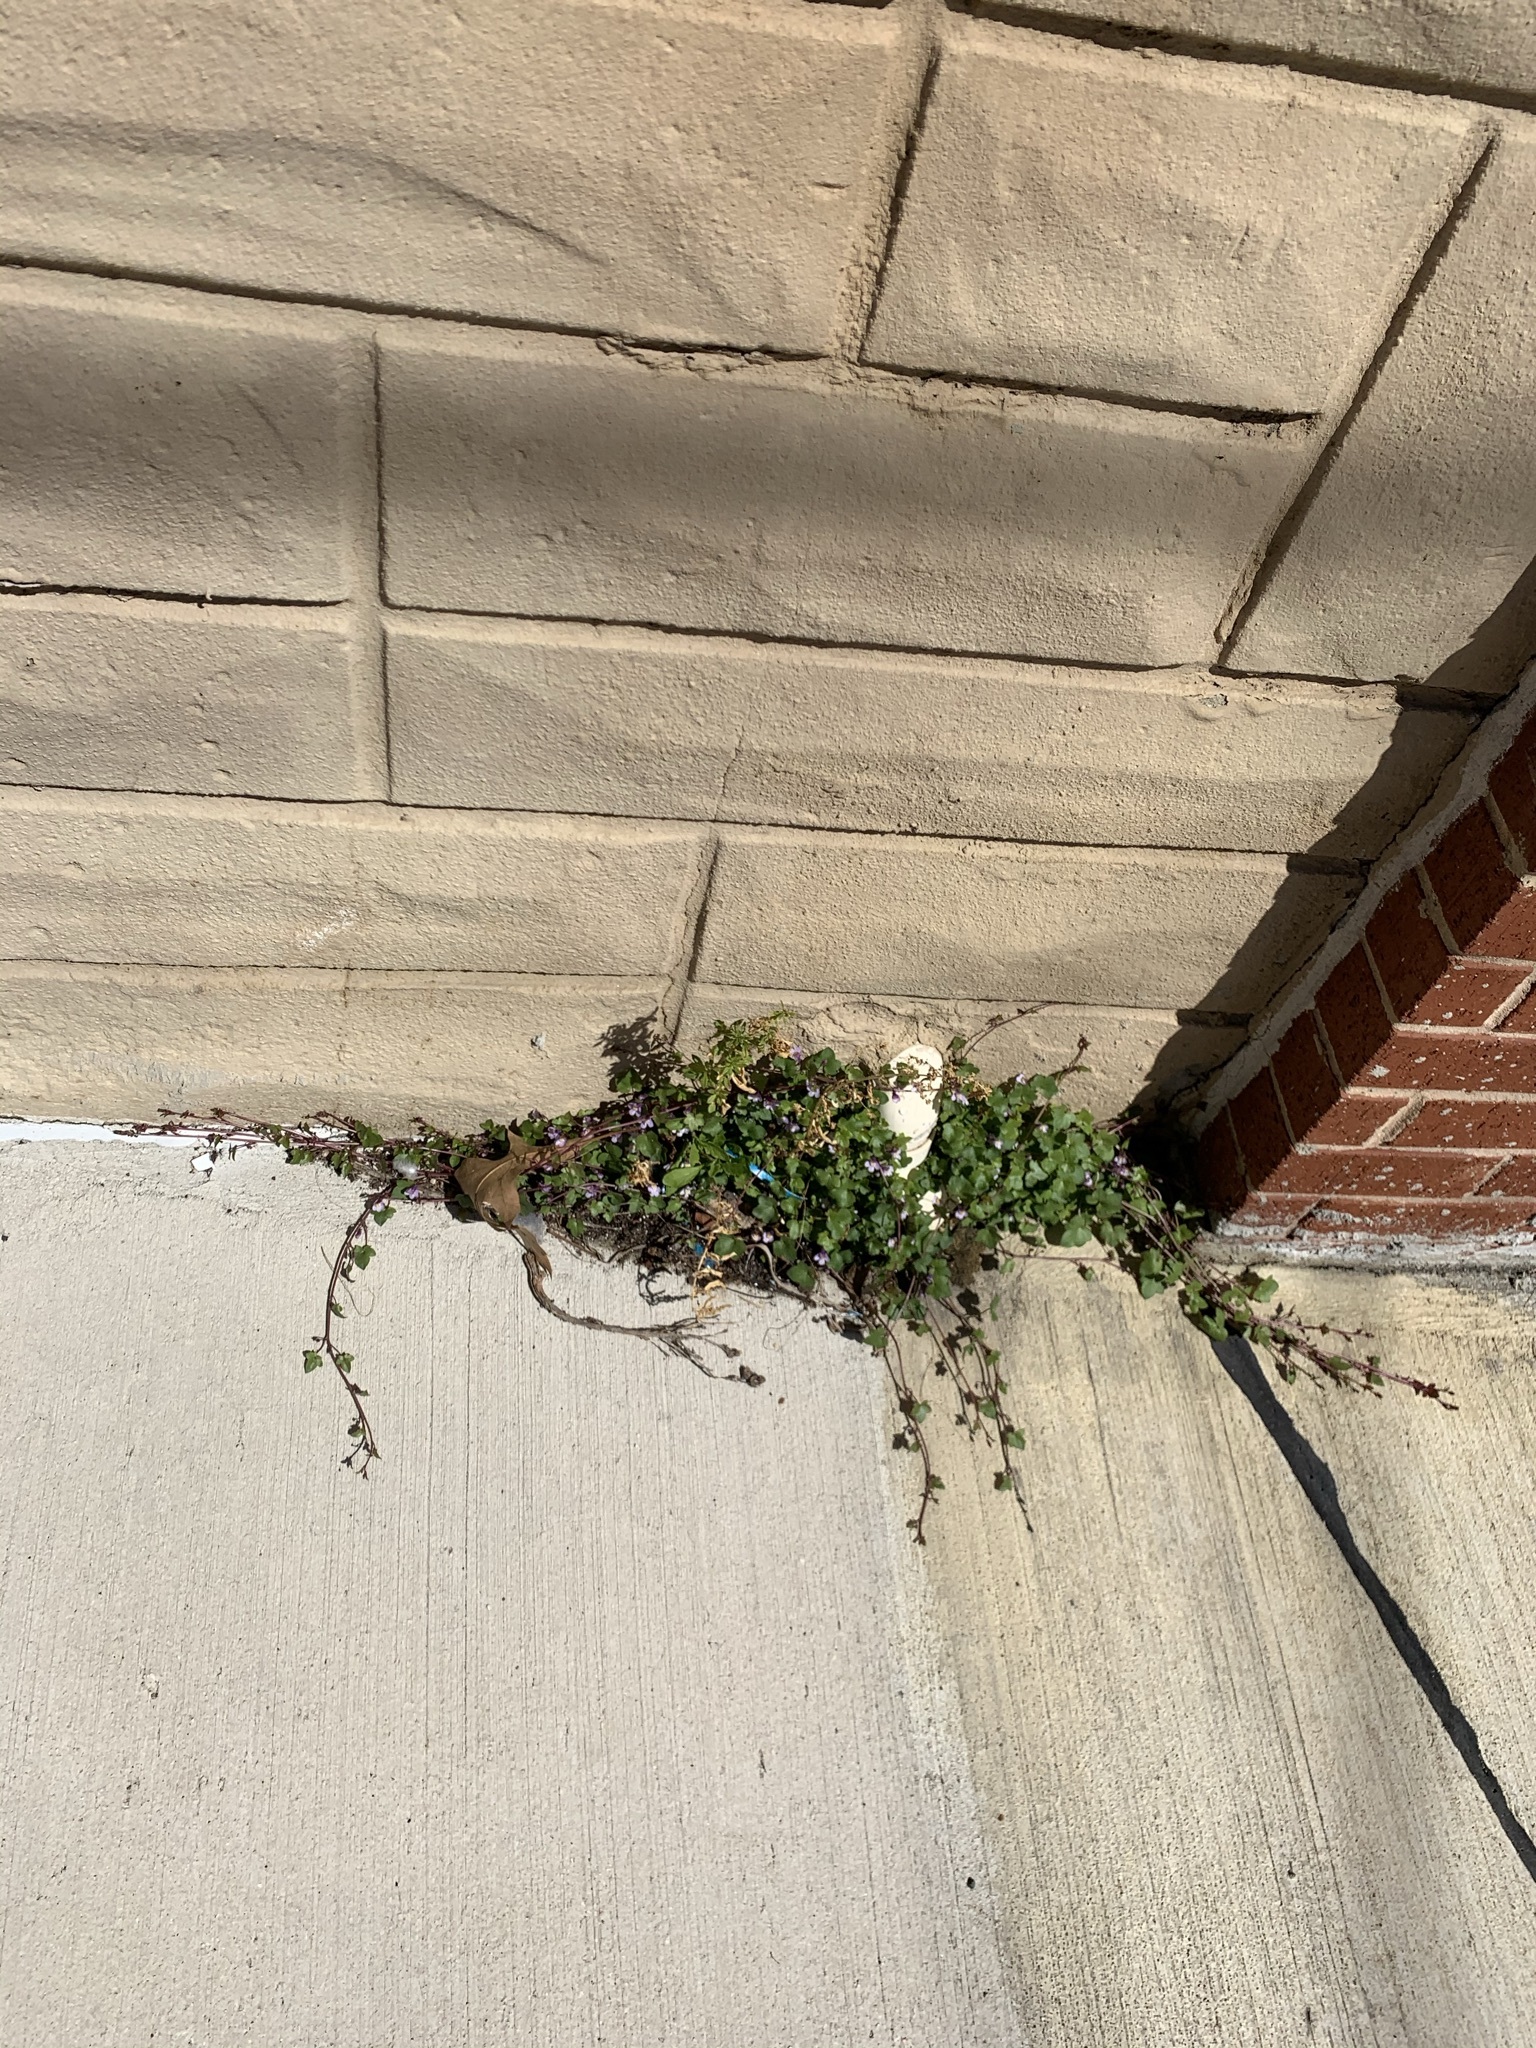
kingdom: Plantae
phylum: Tracheophyta
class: Magnoliopsida
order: Lamiales
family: Plantaginaceae
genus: Cymbalaria
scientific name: Cymbalaria muralis
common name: Ivy-leaved toadflax
